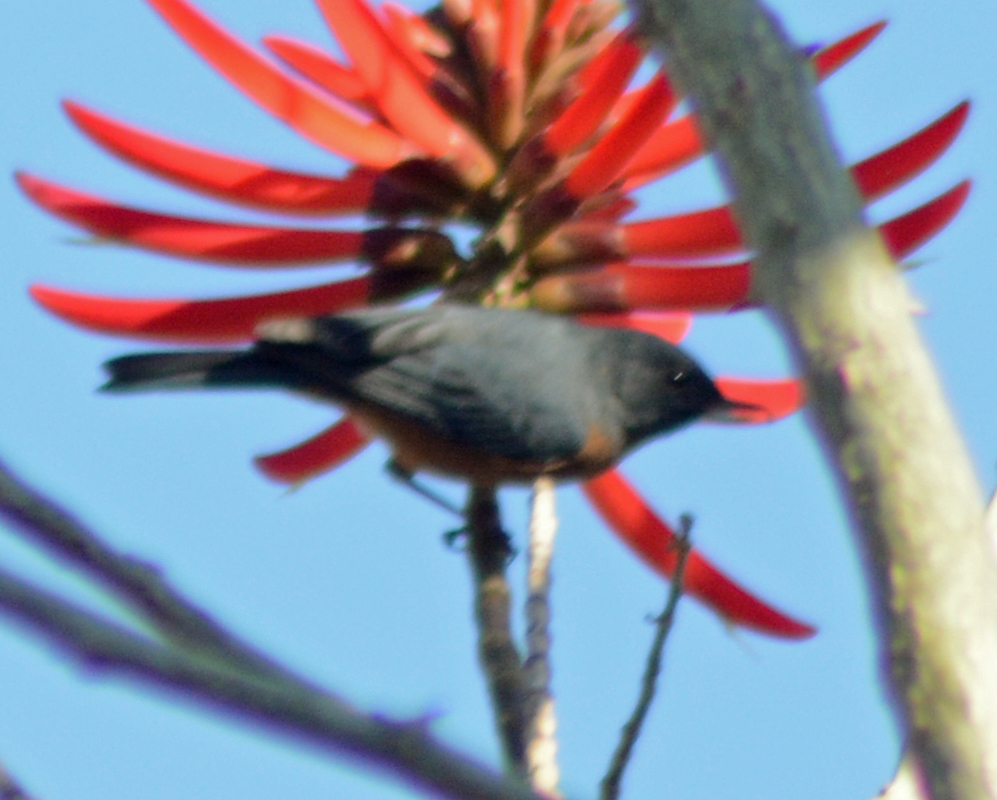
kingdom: Animalia
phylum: Chordata
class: Aves
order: Passeriformes
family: Thraupidae
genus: Diglossa
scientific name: Diglossa baritula
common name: Cinnamon-bellied flowerpiercer
